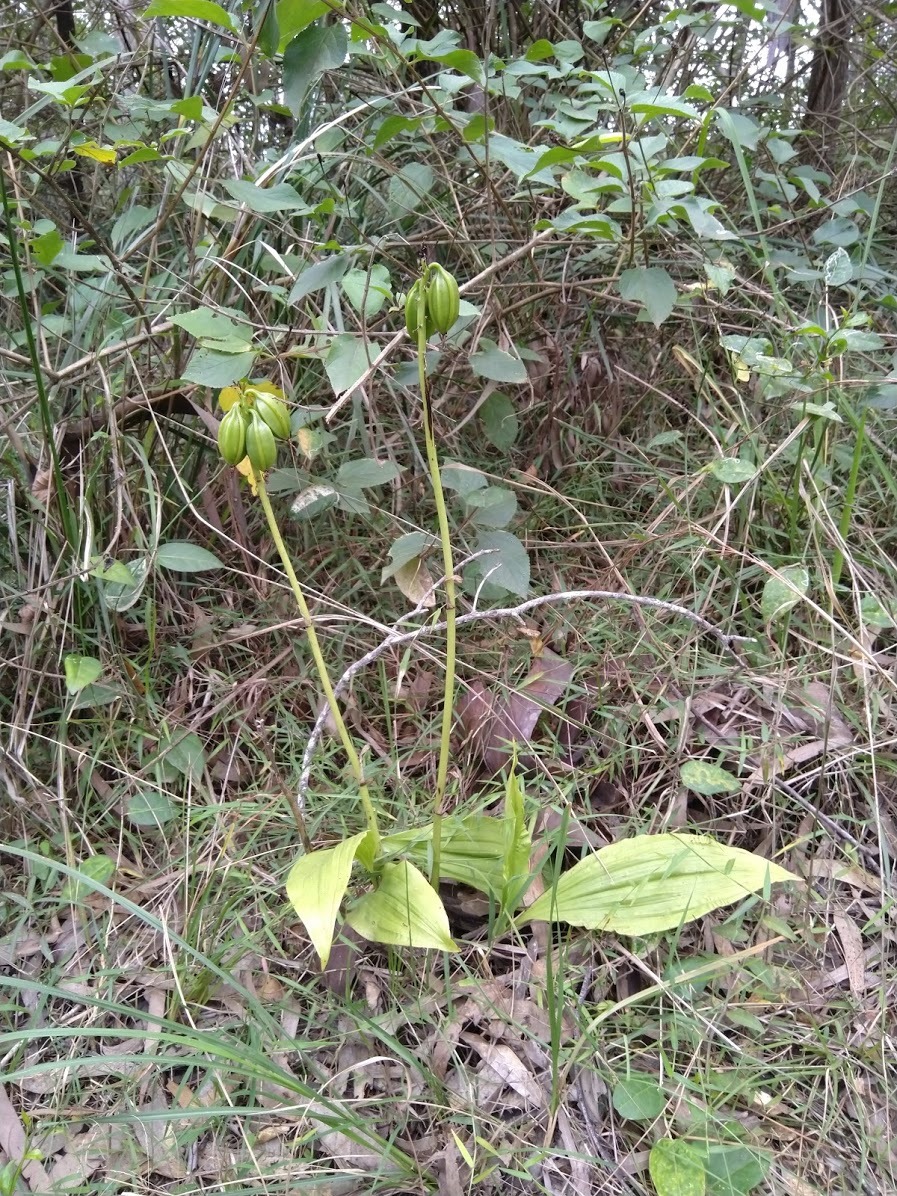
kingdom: Plantae
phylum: Tracheophyta
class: Liliopsida
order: Asparagales
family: Orchidaceae
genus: Eulophia
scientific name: Eulophia cernua
